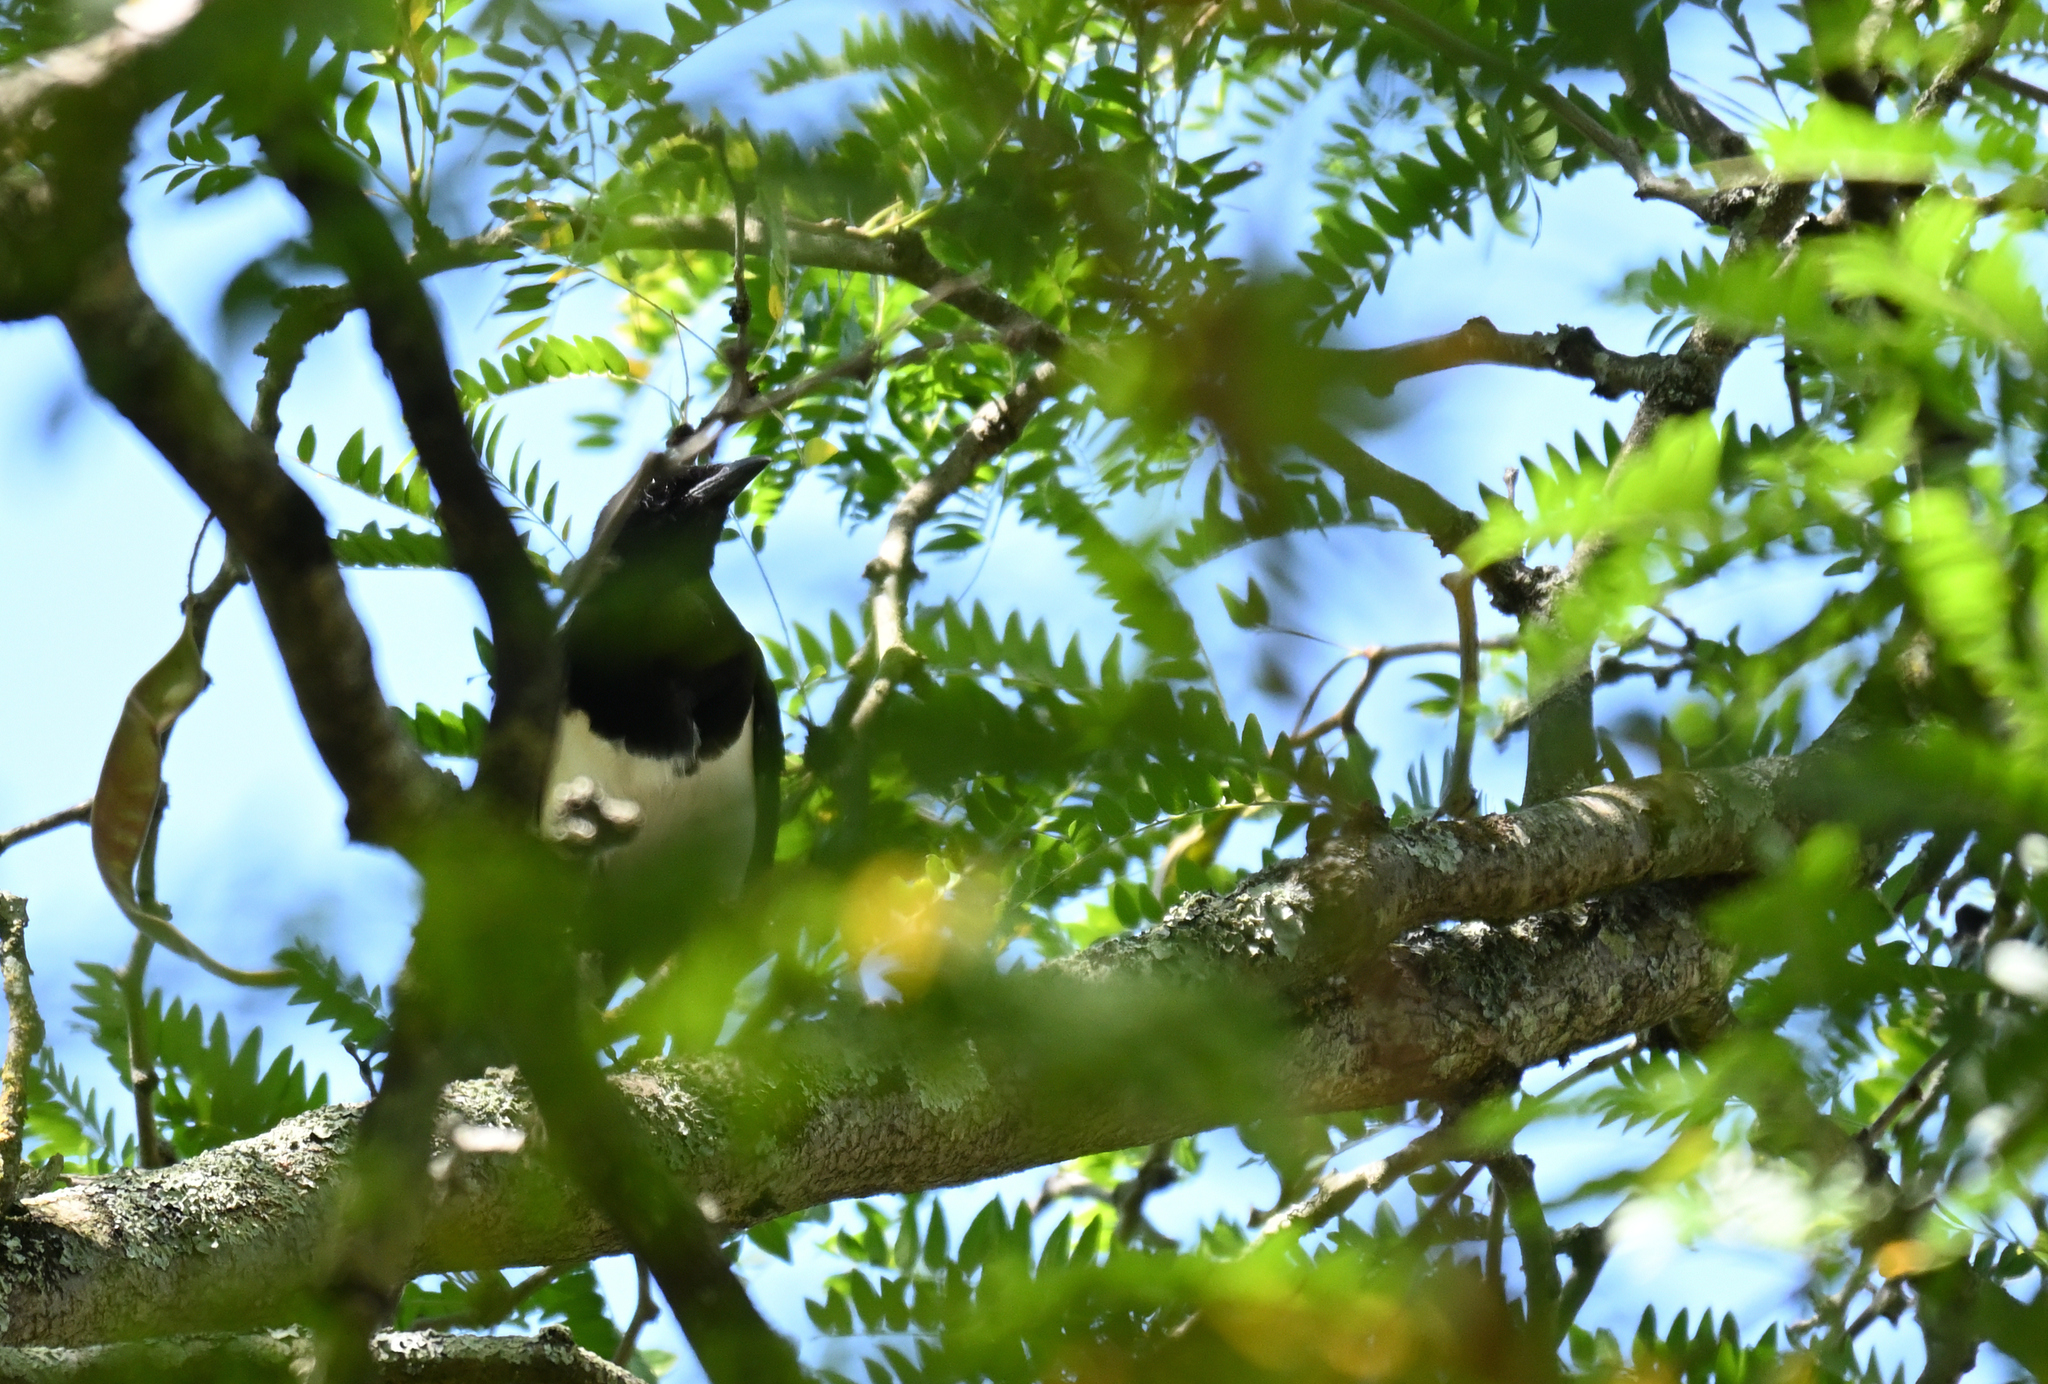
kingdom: Animalia
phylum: Chordata
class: Aves
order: Passeriformes
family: Corvidae
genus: Pica
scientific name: Pica pica
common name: Eurasian magpie
